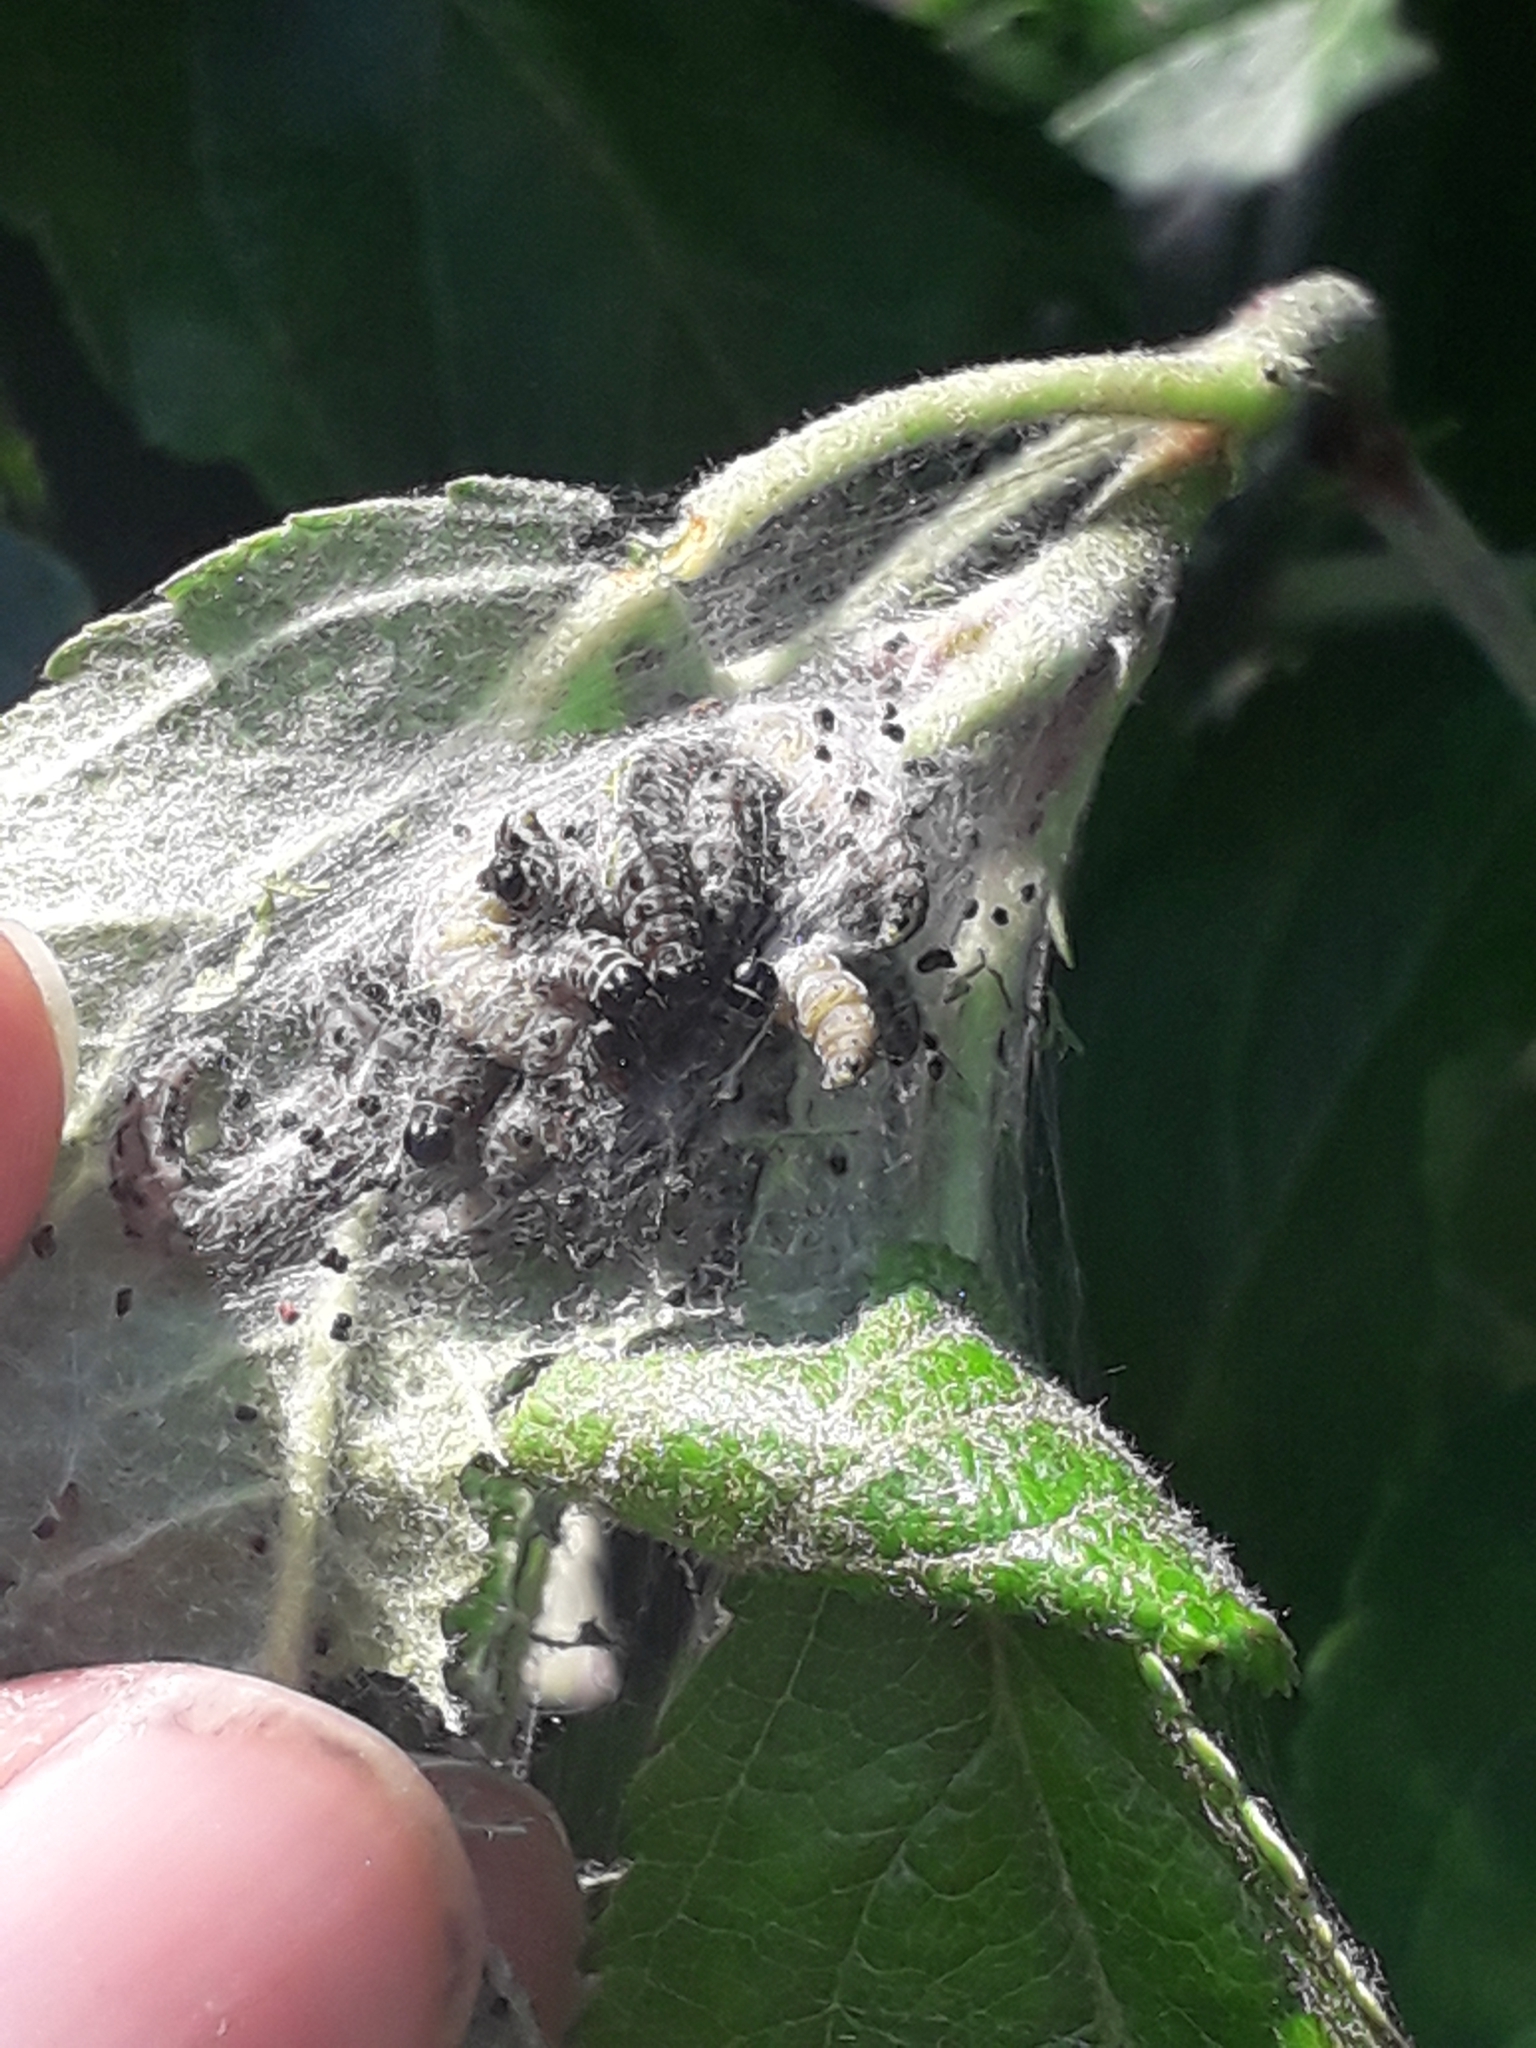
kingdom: Animalia
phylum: Arthropoda
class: Insecta
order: Lepidoptera
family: Yponomeutidae
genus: Yponomeuta
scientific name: Yponomeuta padella
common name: Orchard ermine
